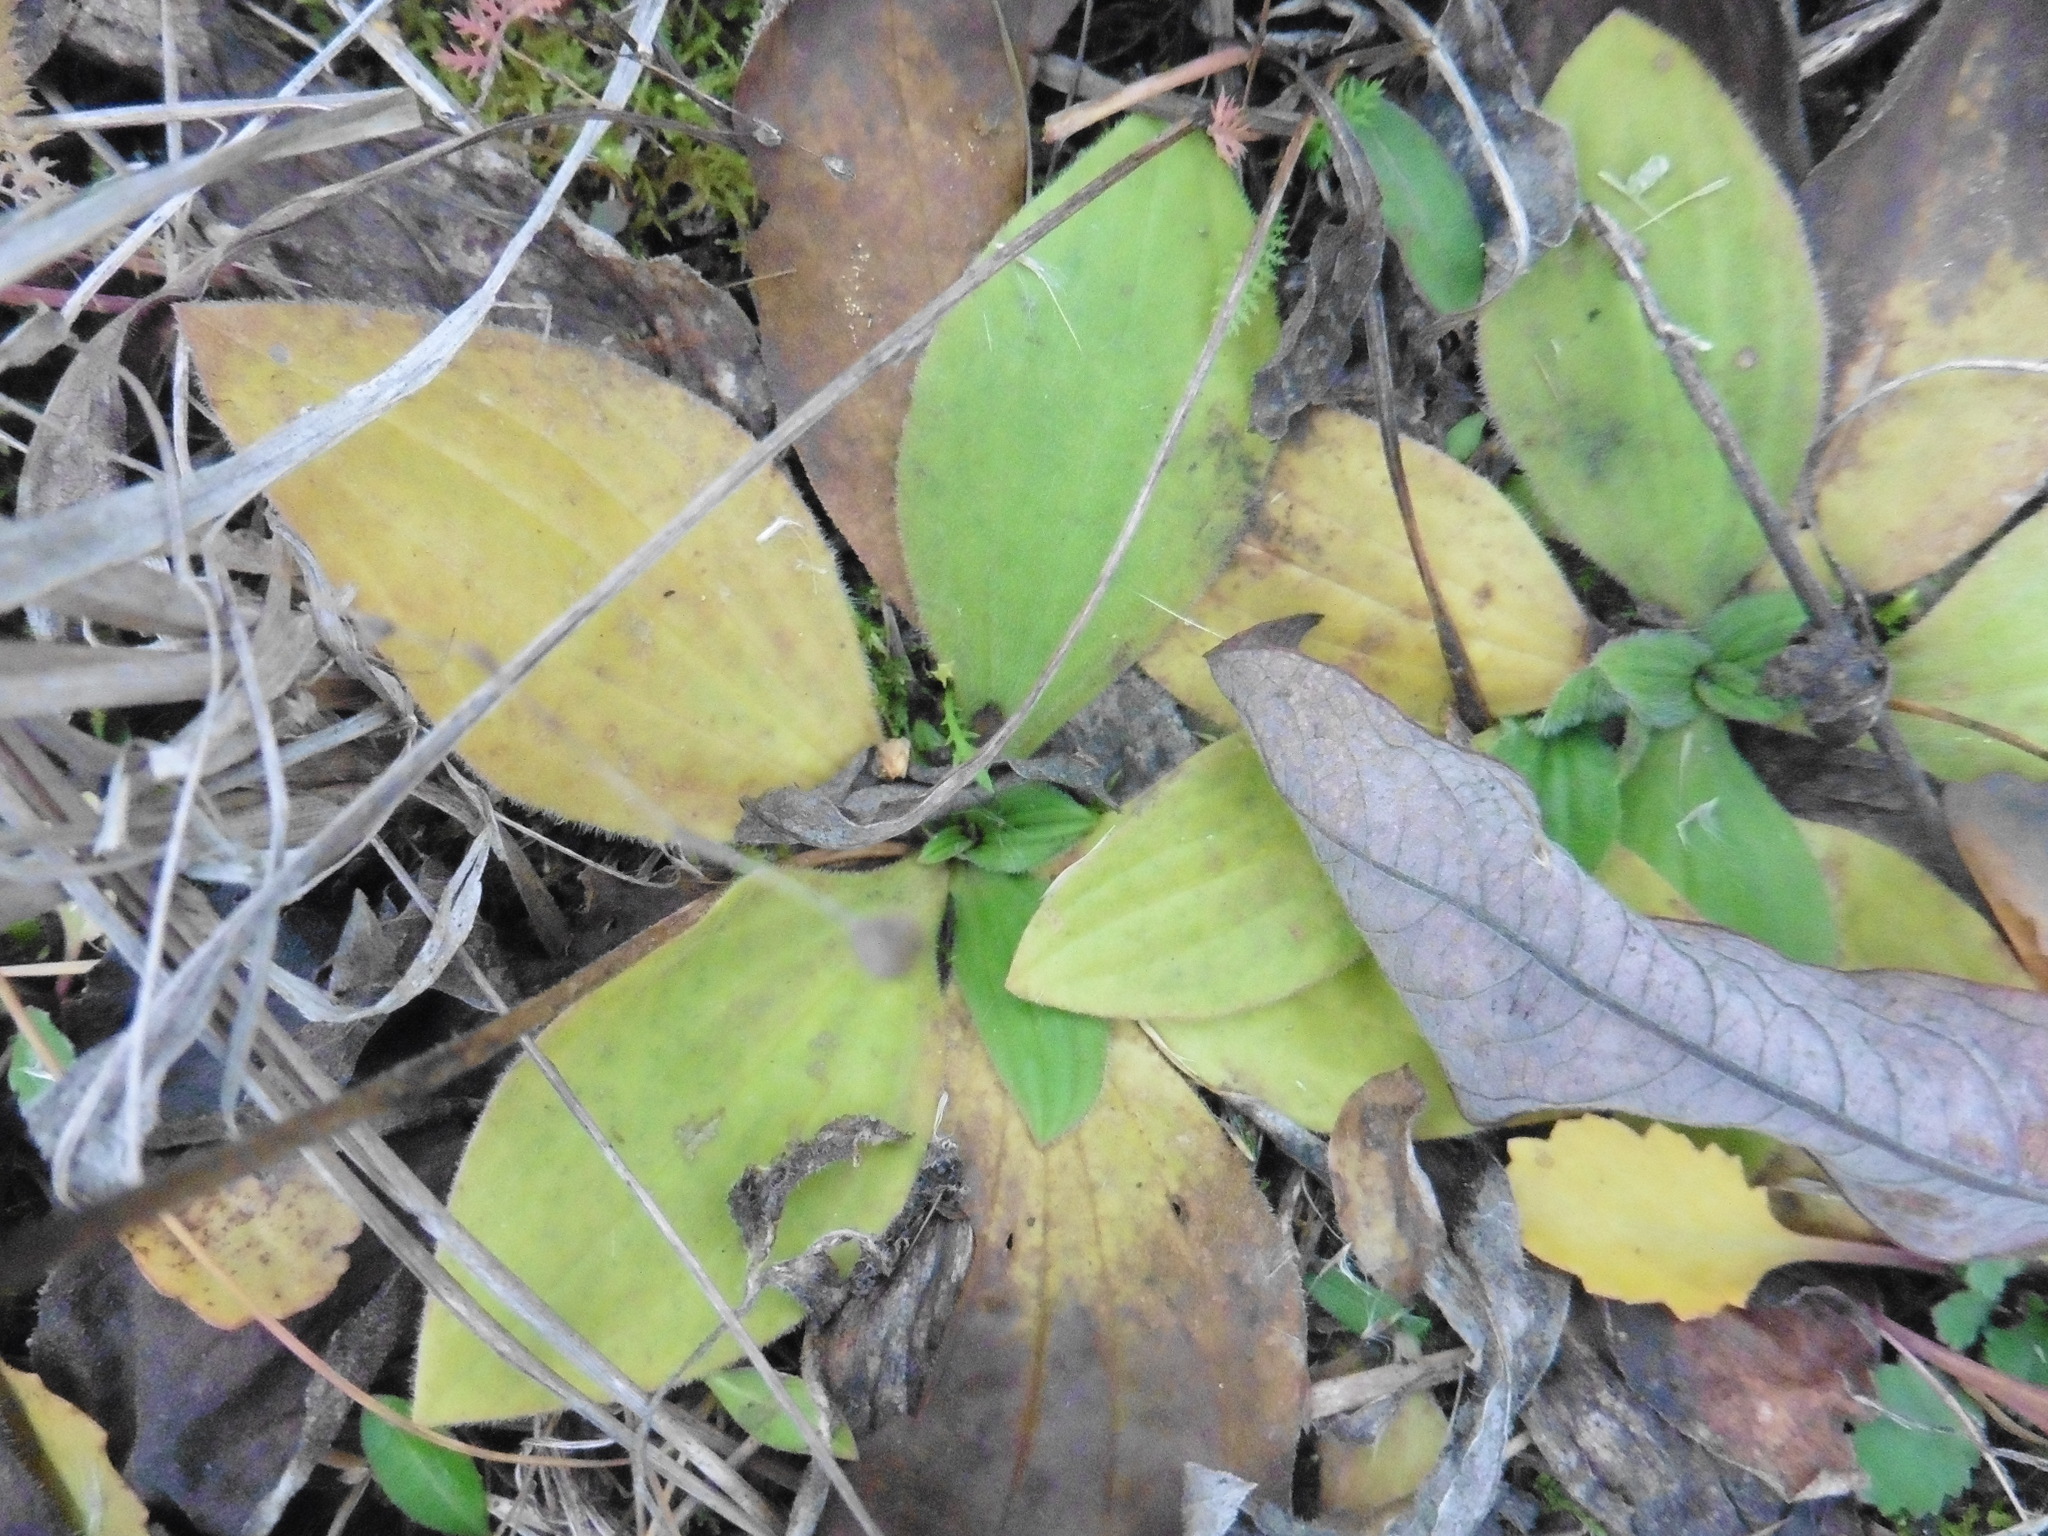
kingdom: Plantae
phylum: Tracheophyta
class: Magnoliopsida
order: Lamiales
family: Plantaginaceae
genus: Plantago
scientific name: Plantago media
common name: Hoary plantain
